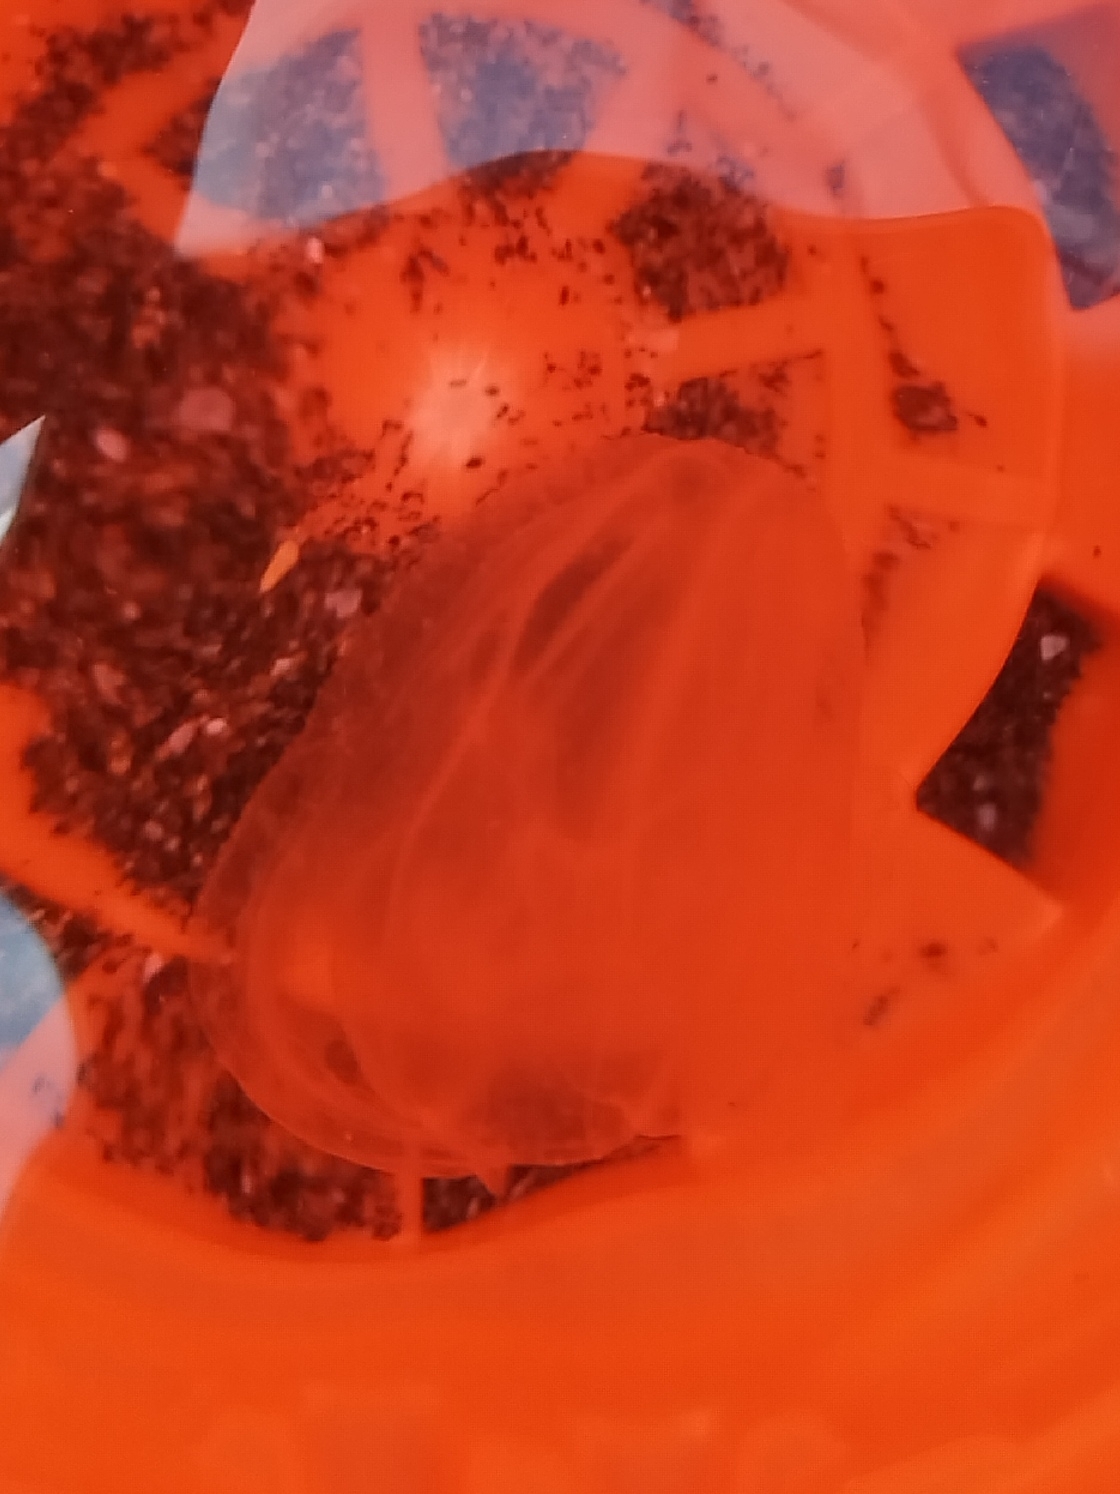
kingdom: Animalia
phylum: Ctenophora
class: Tentaculata
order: Lobata
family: Bolinopsidae
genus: Mnemiopsis
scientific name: Mnemiopsis leidyi
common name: American comb jelly
